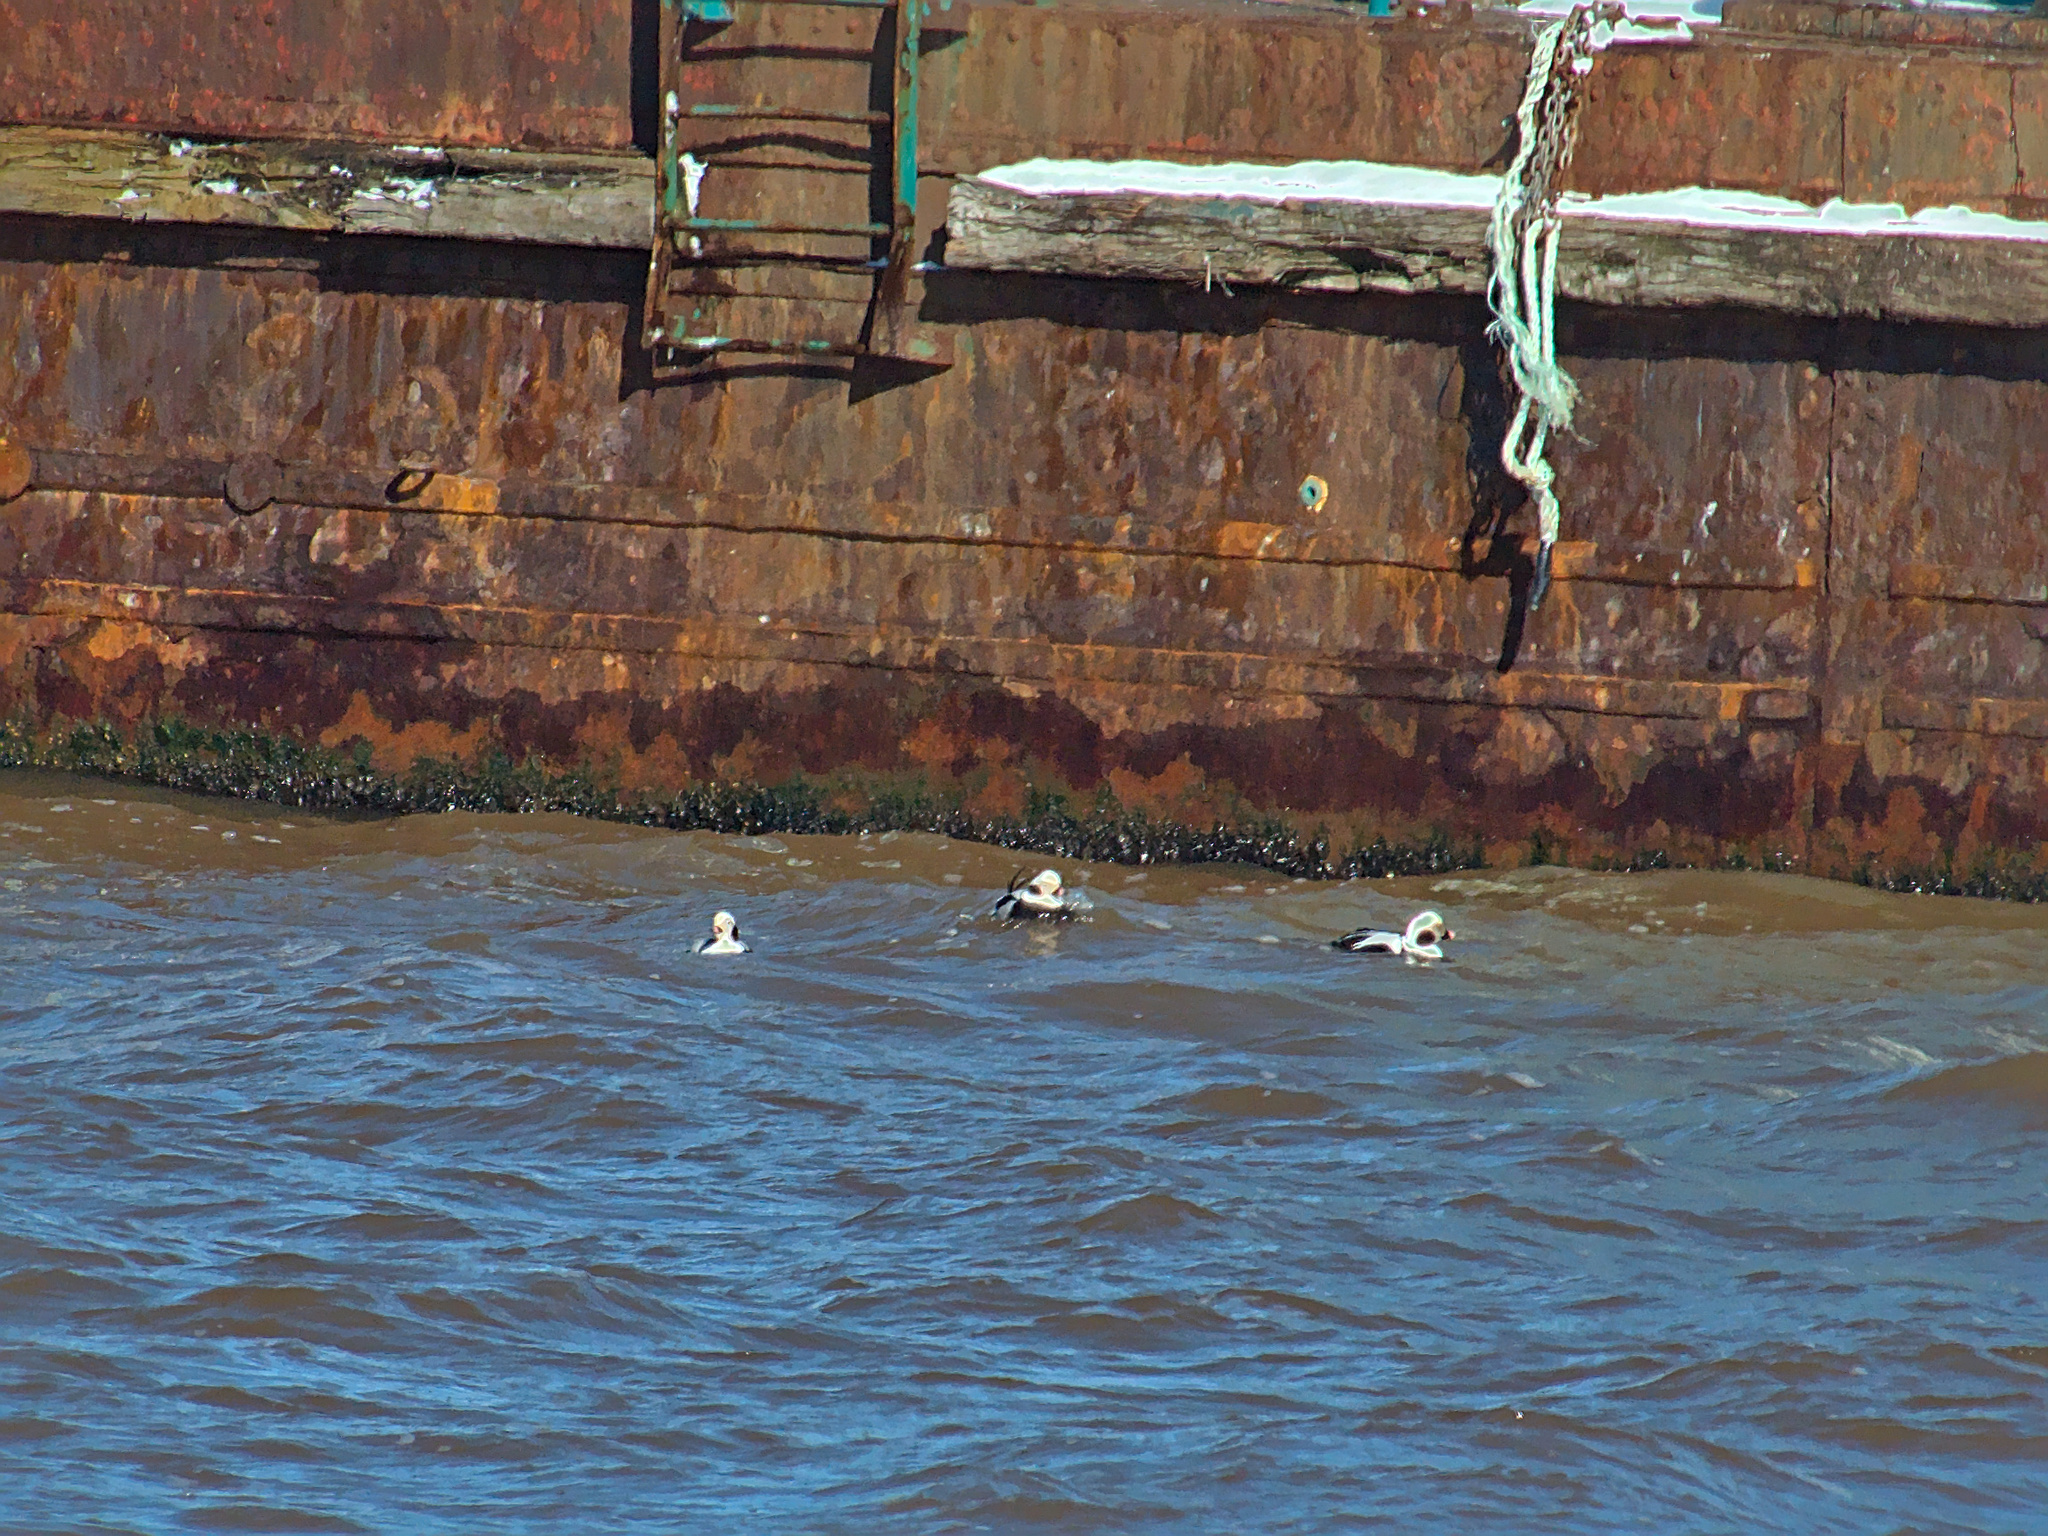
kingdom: Animalia
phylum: Chordata
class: Aves
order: Anseriformes
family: Anatidae
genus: Clangula
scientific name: Clangula hyemalis
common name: Long-tailed duck
